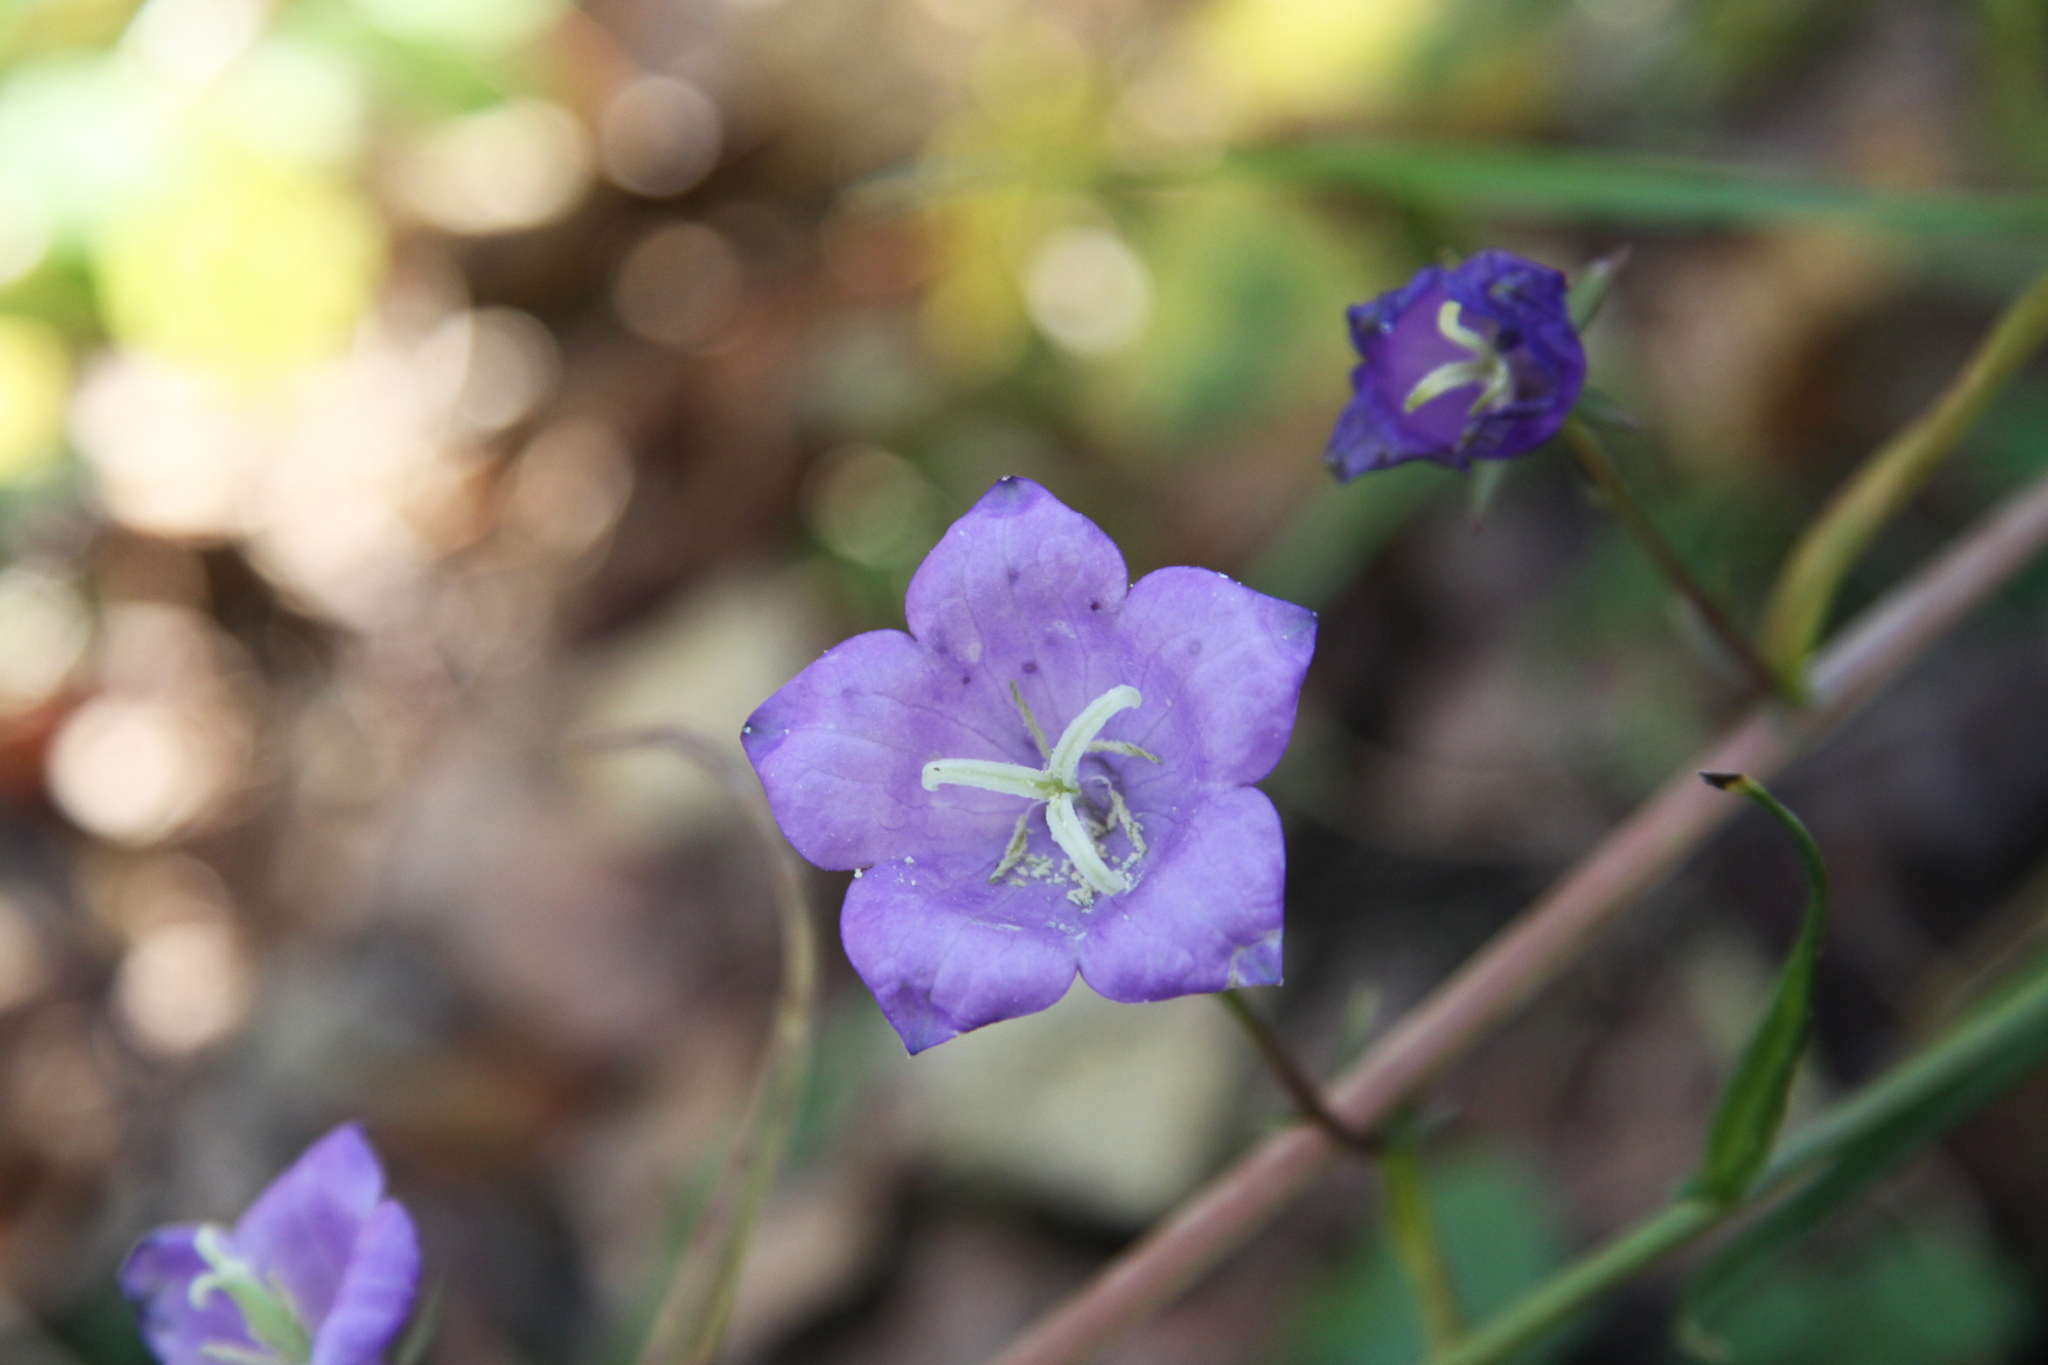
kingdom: Plantae
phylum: Tracheophyta
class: Magnoliopsida
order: Asterales
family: Campanulaceae
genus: Campanula
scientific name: Campanula persicifolia
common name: Peach-leaved bellflower
